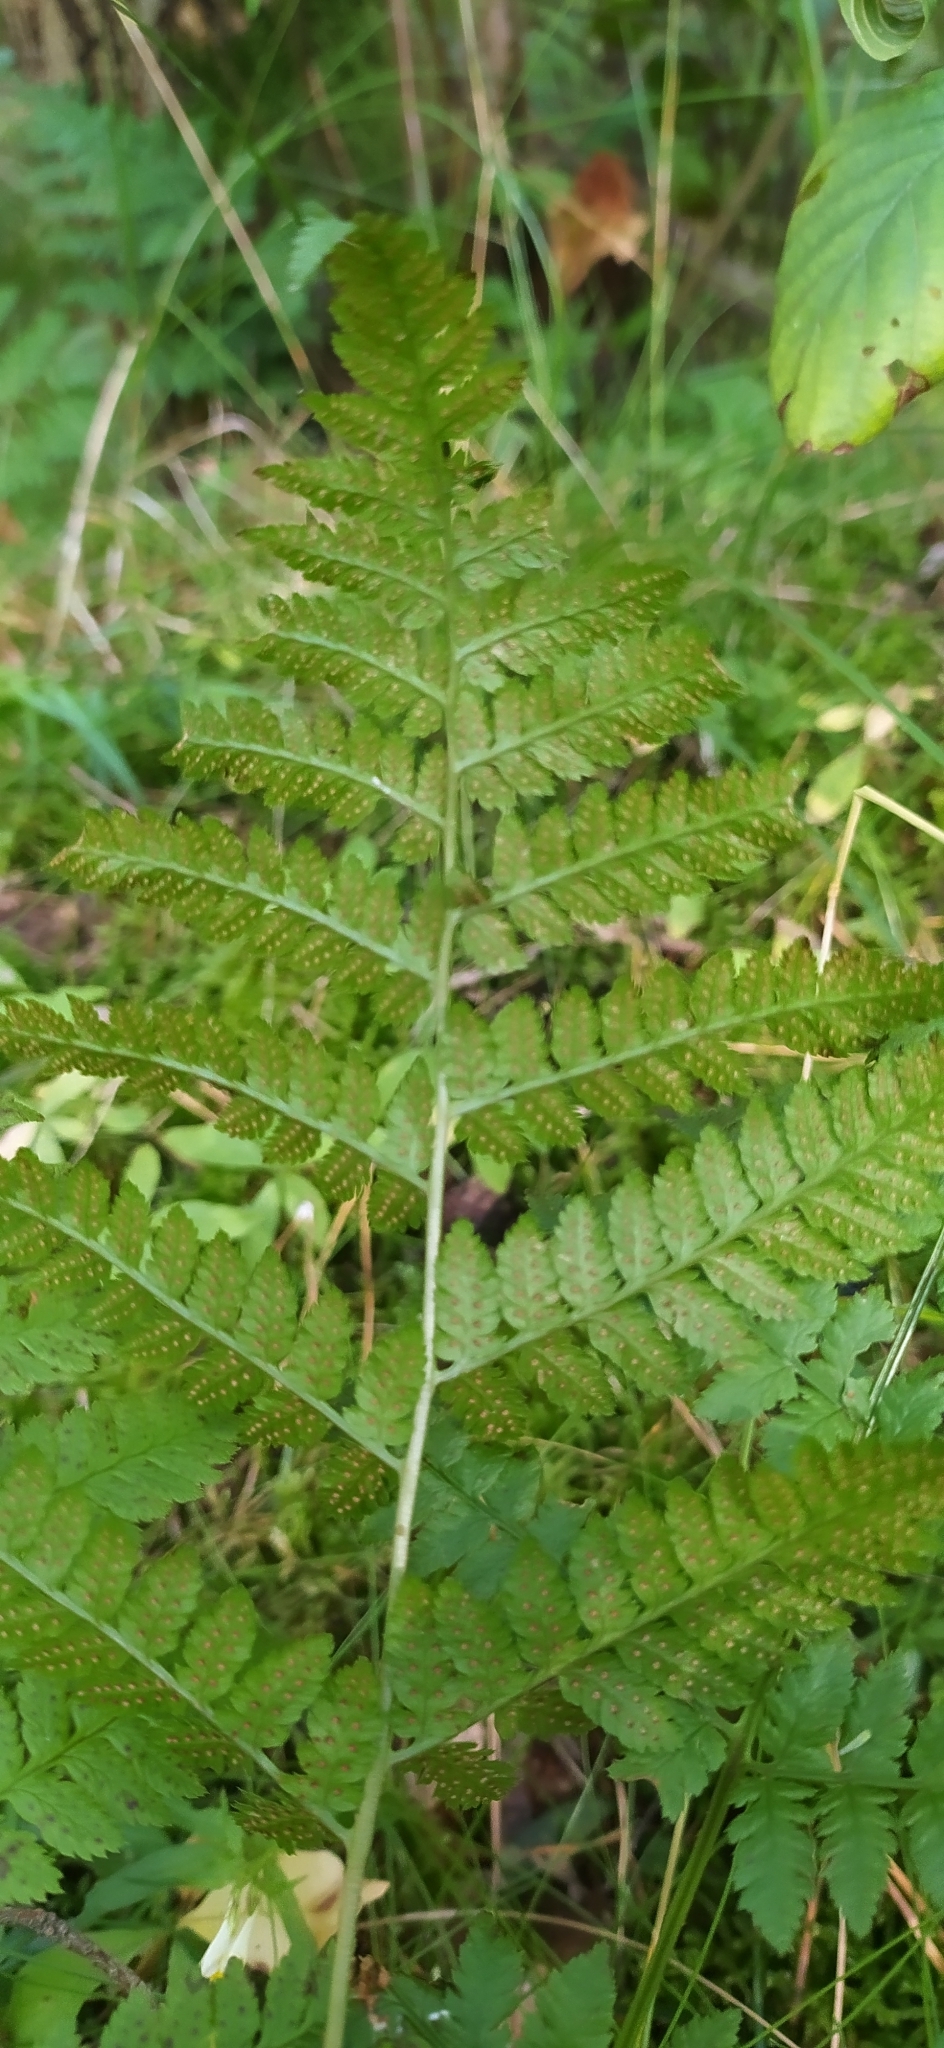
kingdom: Plantae
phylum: Tracheophyta
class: Polypodiopsida
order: Polypodiales
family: Dryopteridaceae
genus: Dryopteris
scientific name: Dryopteris carthusiana
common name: Narrow buckler-fern
